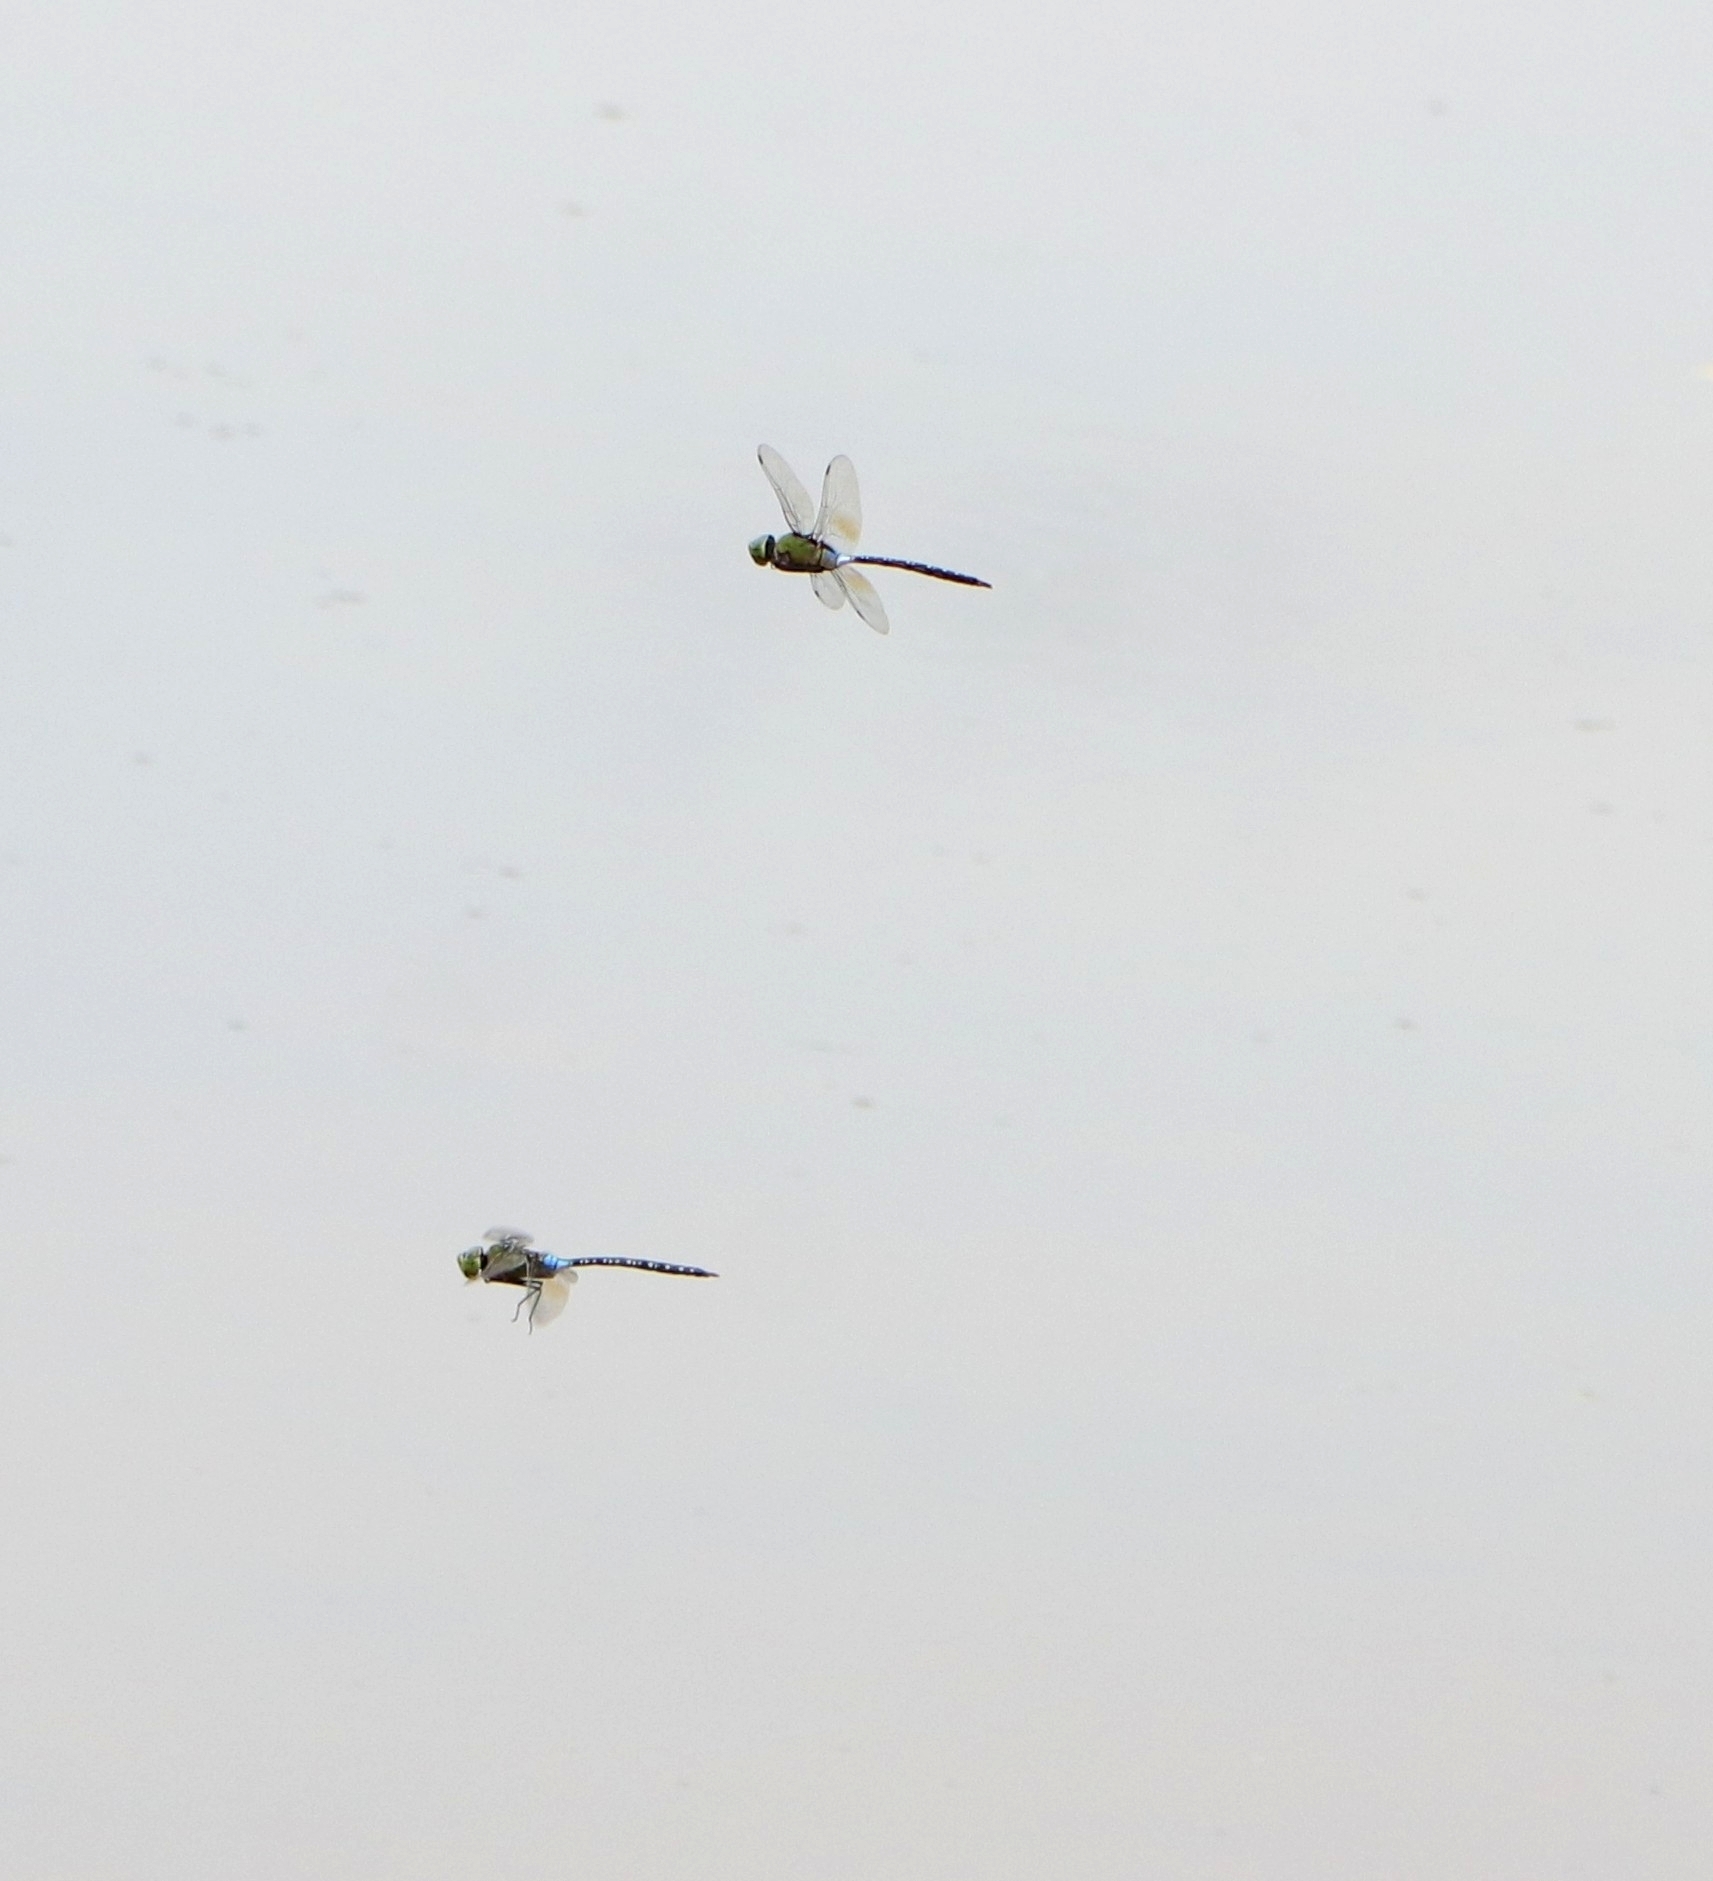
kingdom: Animalia
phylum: Arthropoda
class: Insecta
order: Odonata
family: Aeshnidae
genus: Anax
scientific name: Anax guttatus
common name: Emperor
